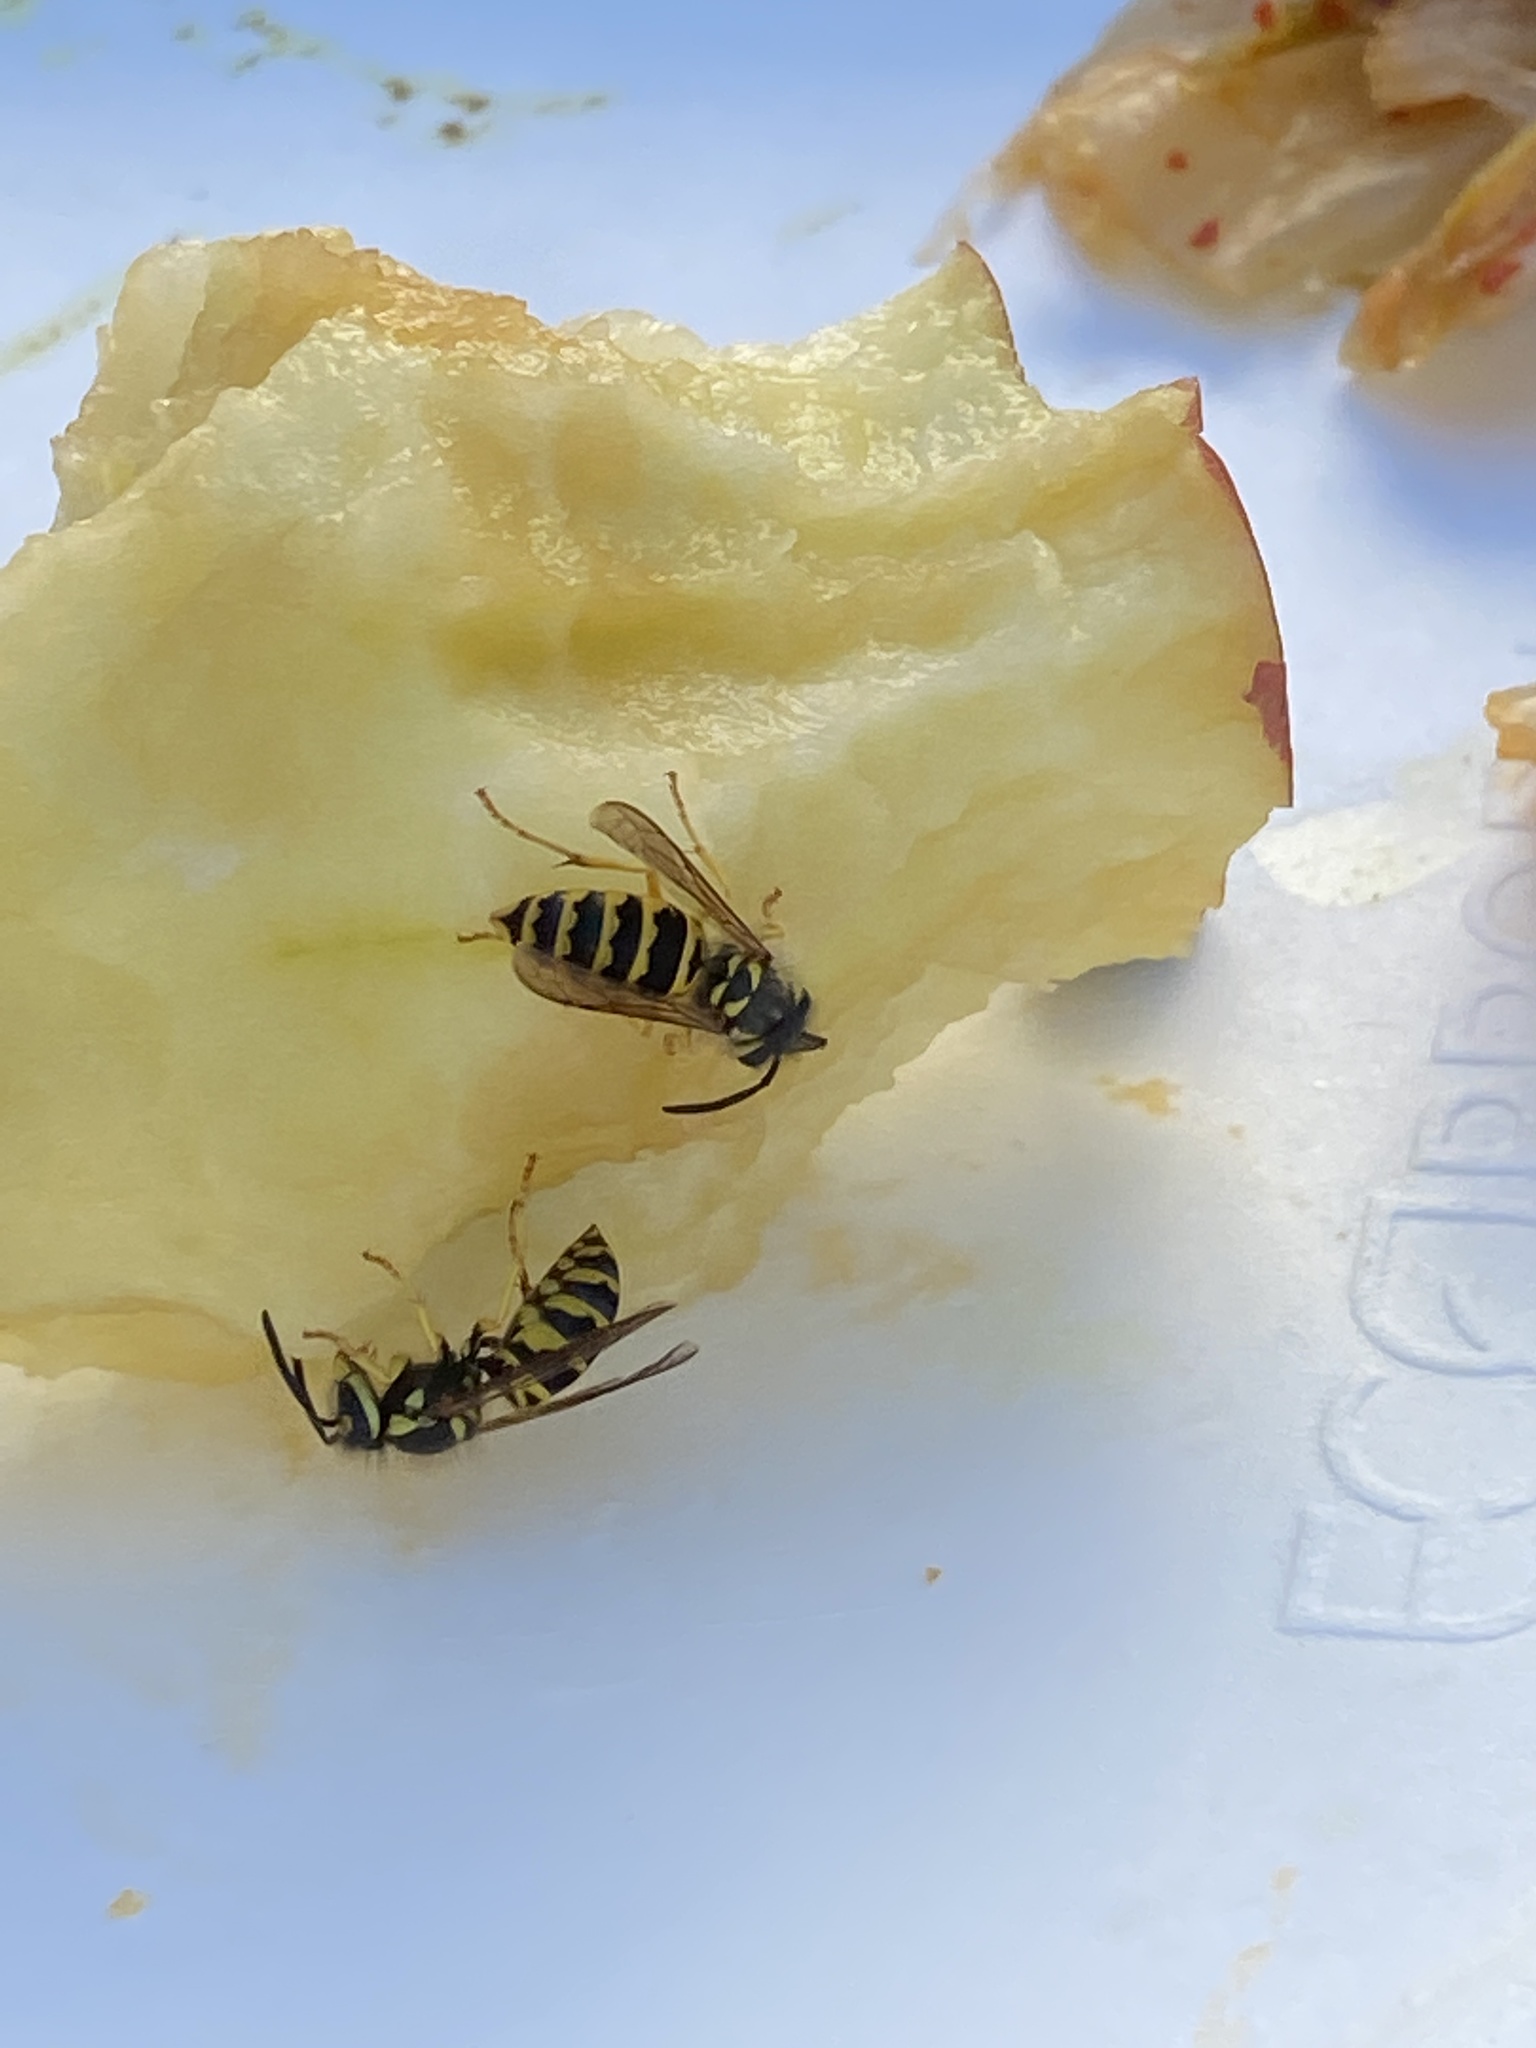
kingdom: Animalia
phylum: Arthropoda
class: Insecta
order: Hymenoptera
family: Vespidae
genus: Vespula
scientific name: Vespula maculifrons
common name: Eastern yellowjacket
